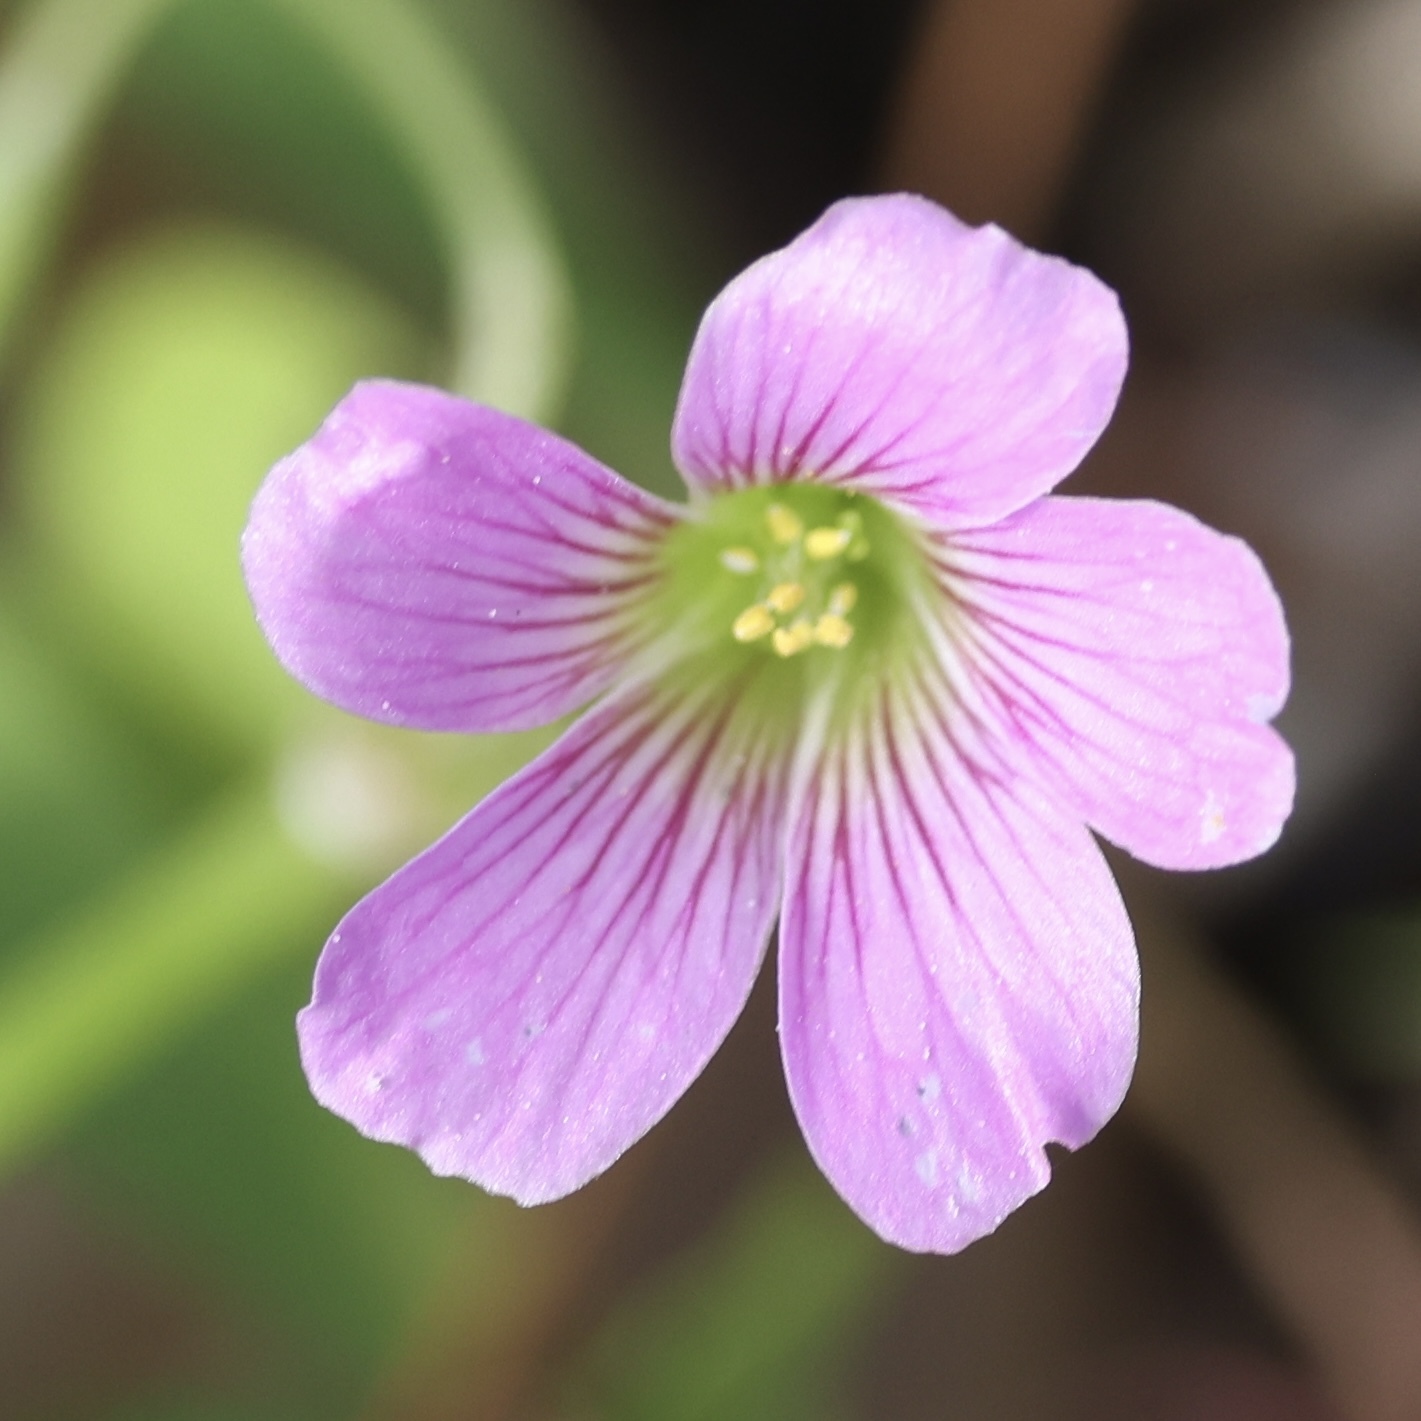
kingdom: Plantae
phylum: Tracheophyta
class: Magnoliopsida
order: Oxalidales
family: Oxalidaceae
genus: Oxalis
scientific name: Oxalis debilis
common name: Large-flowered pink-sorrel
